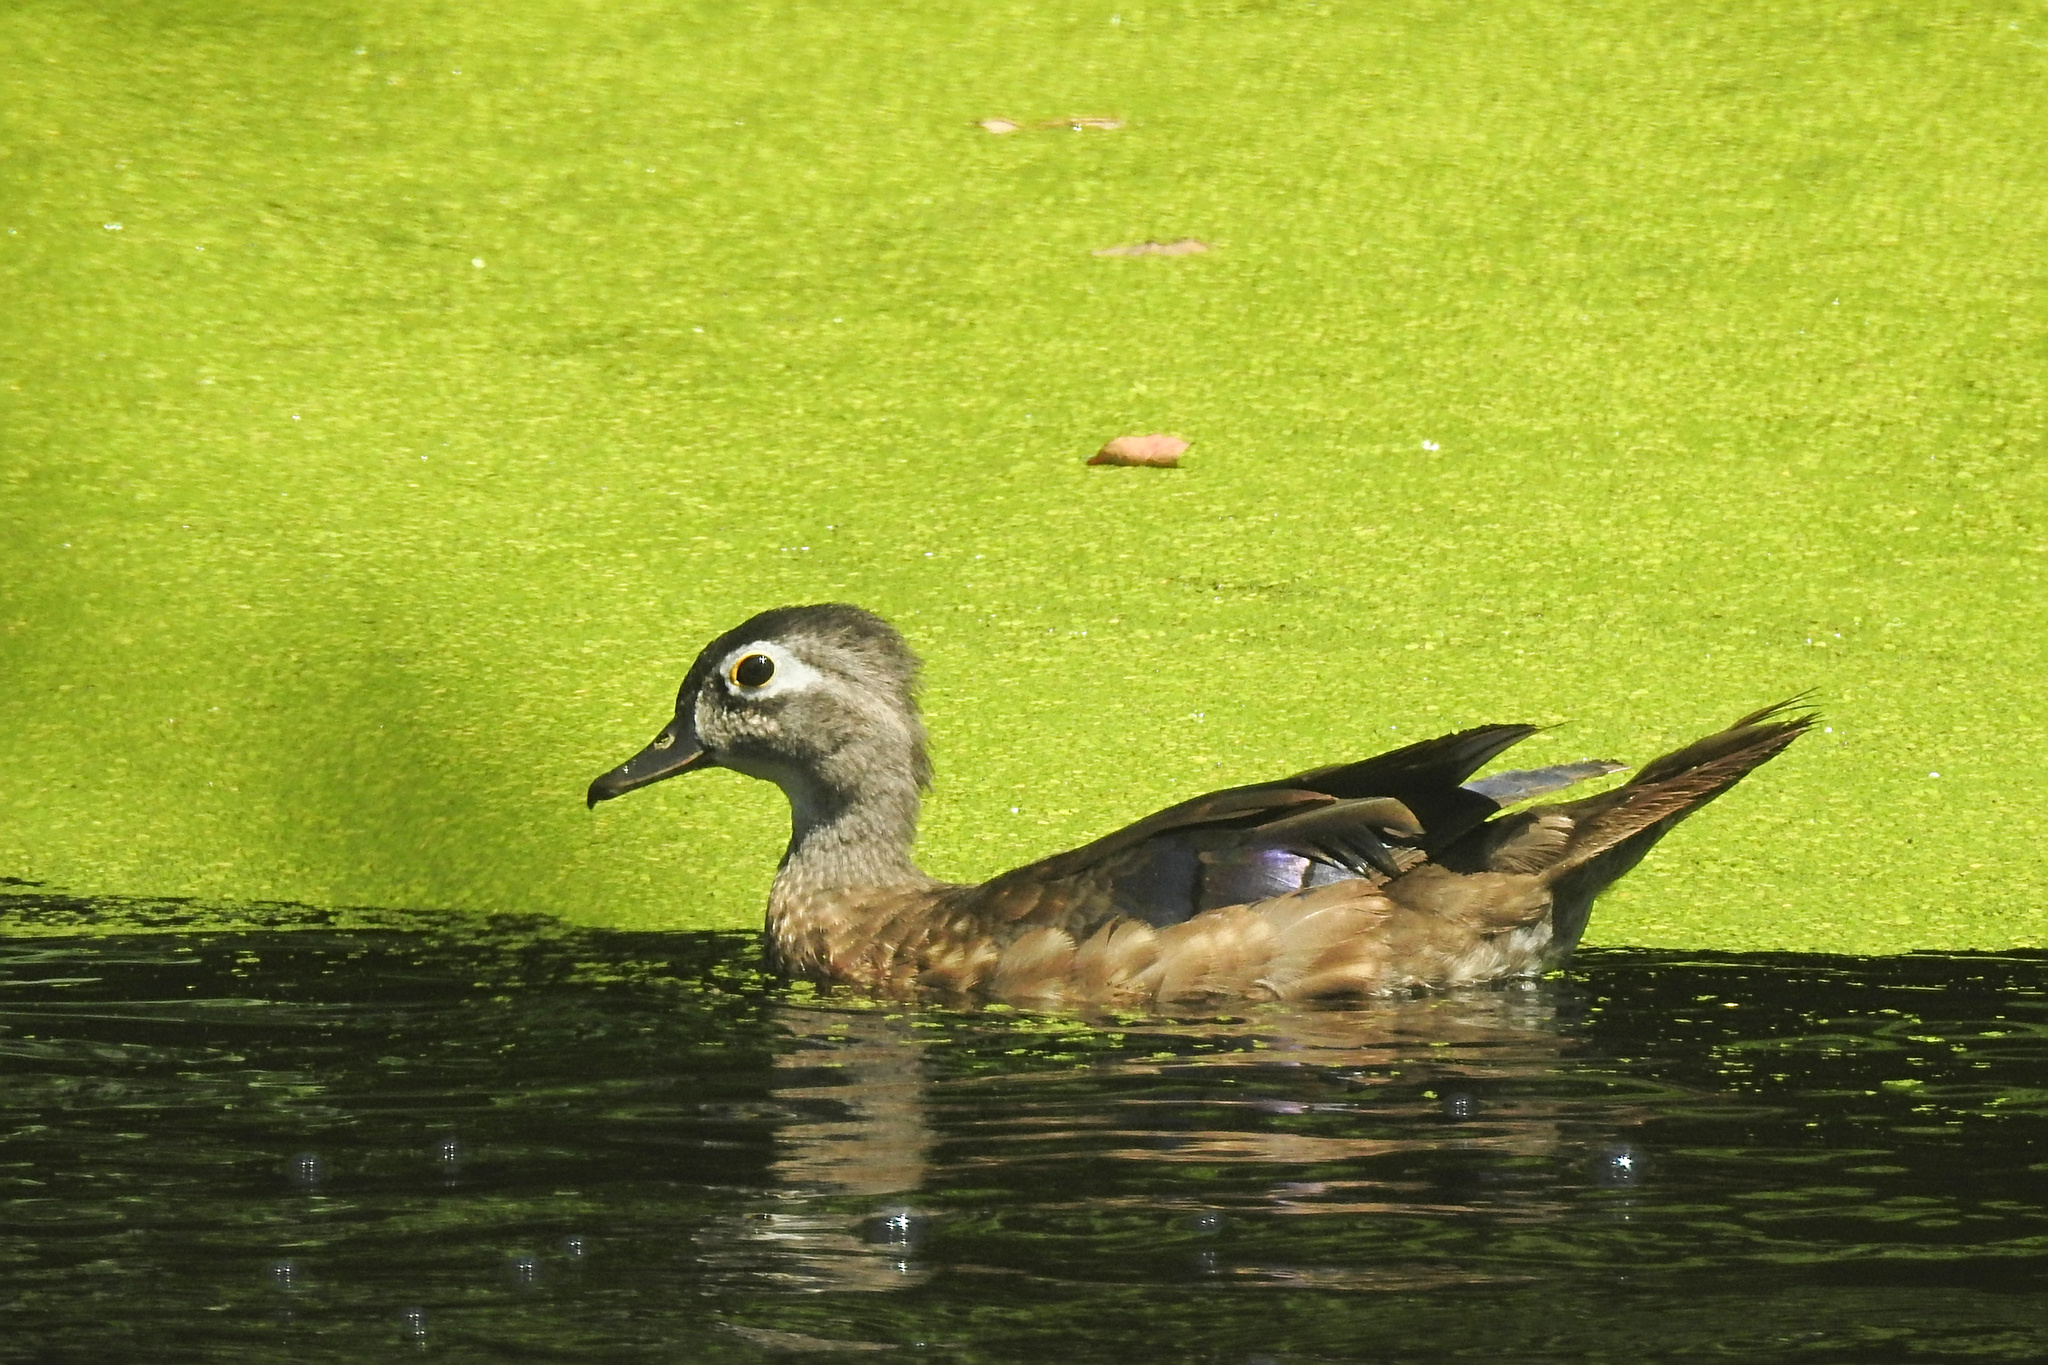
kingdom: Animalia
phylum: Chordata
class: Aves
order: Anseriformes
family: Anatidae
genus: Aix
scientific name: Aix sponsa
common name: Wood duck
